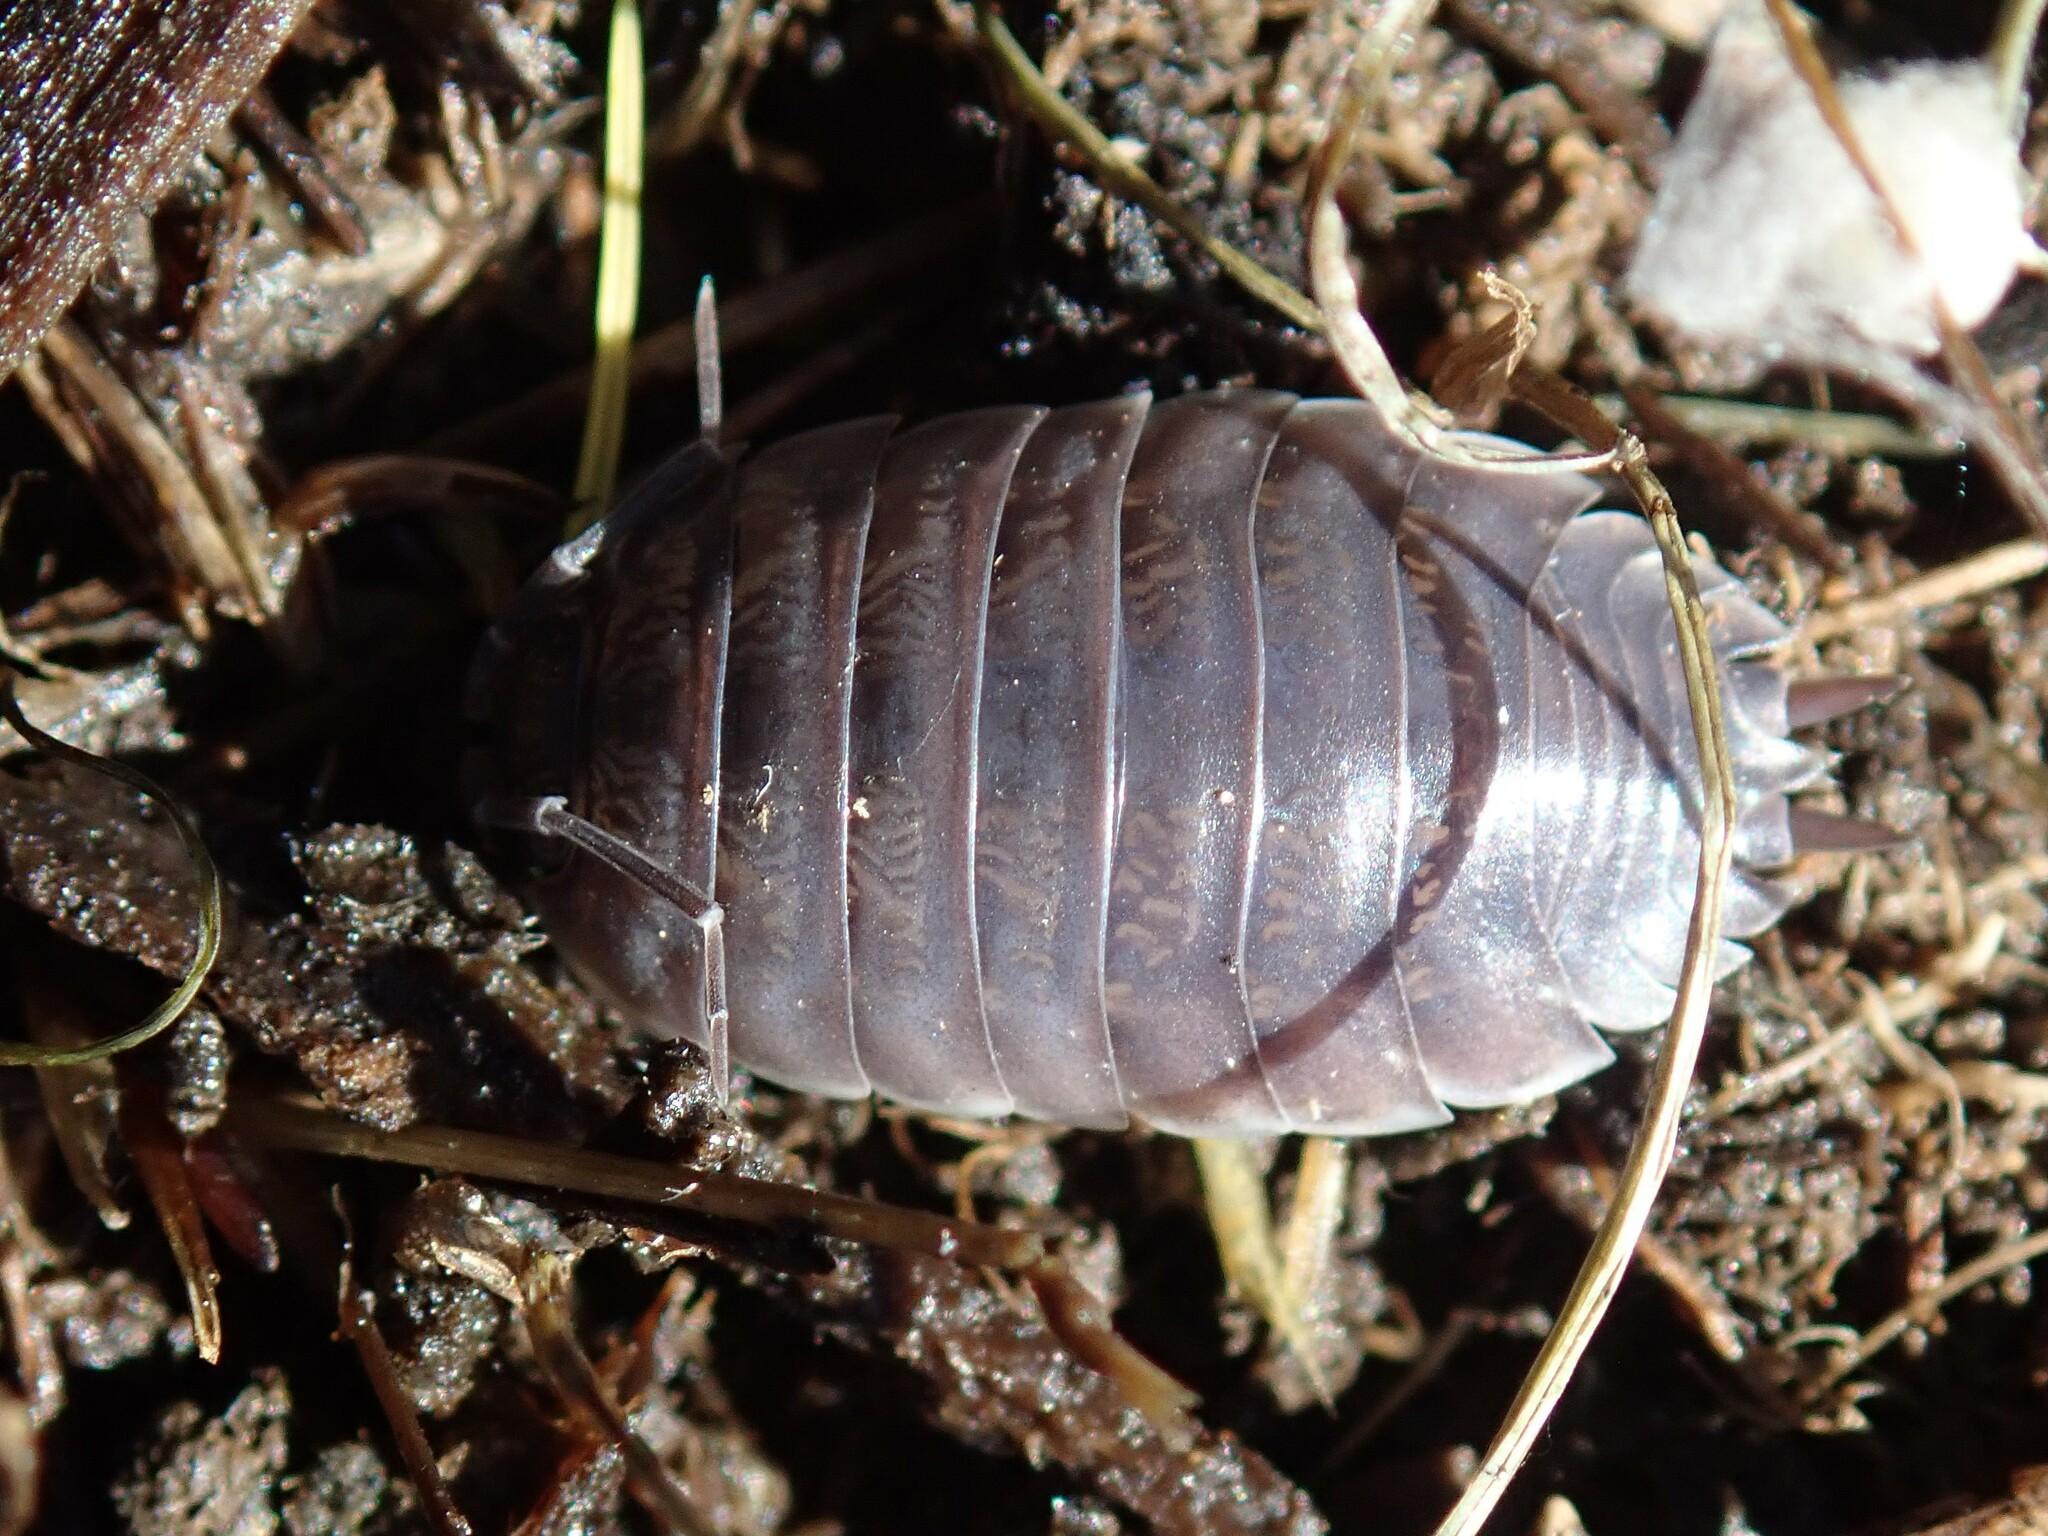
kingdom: Animalia
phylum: Arthropoda
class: Malacostraca
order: Isopoda
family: Porcellionidae
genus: Porcellio
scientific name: Porcellio laevis
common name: Swift woodlouse
